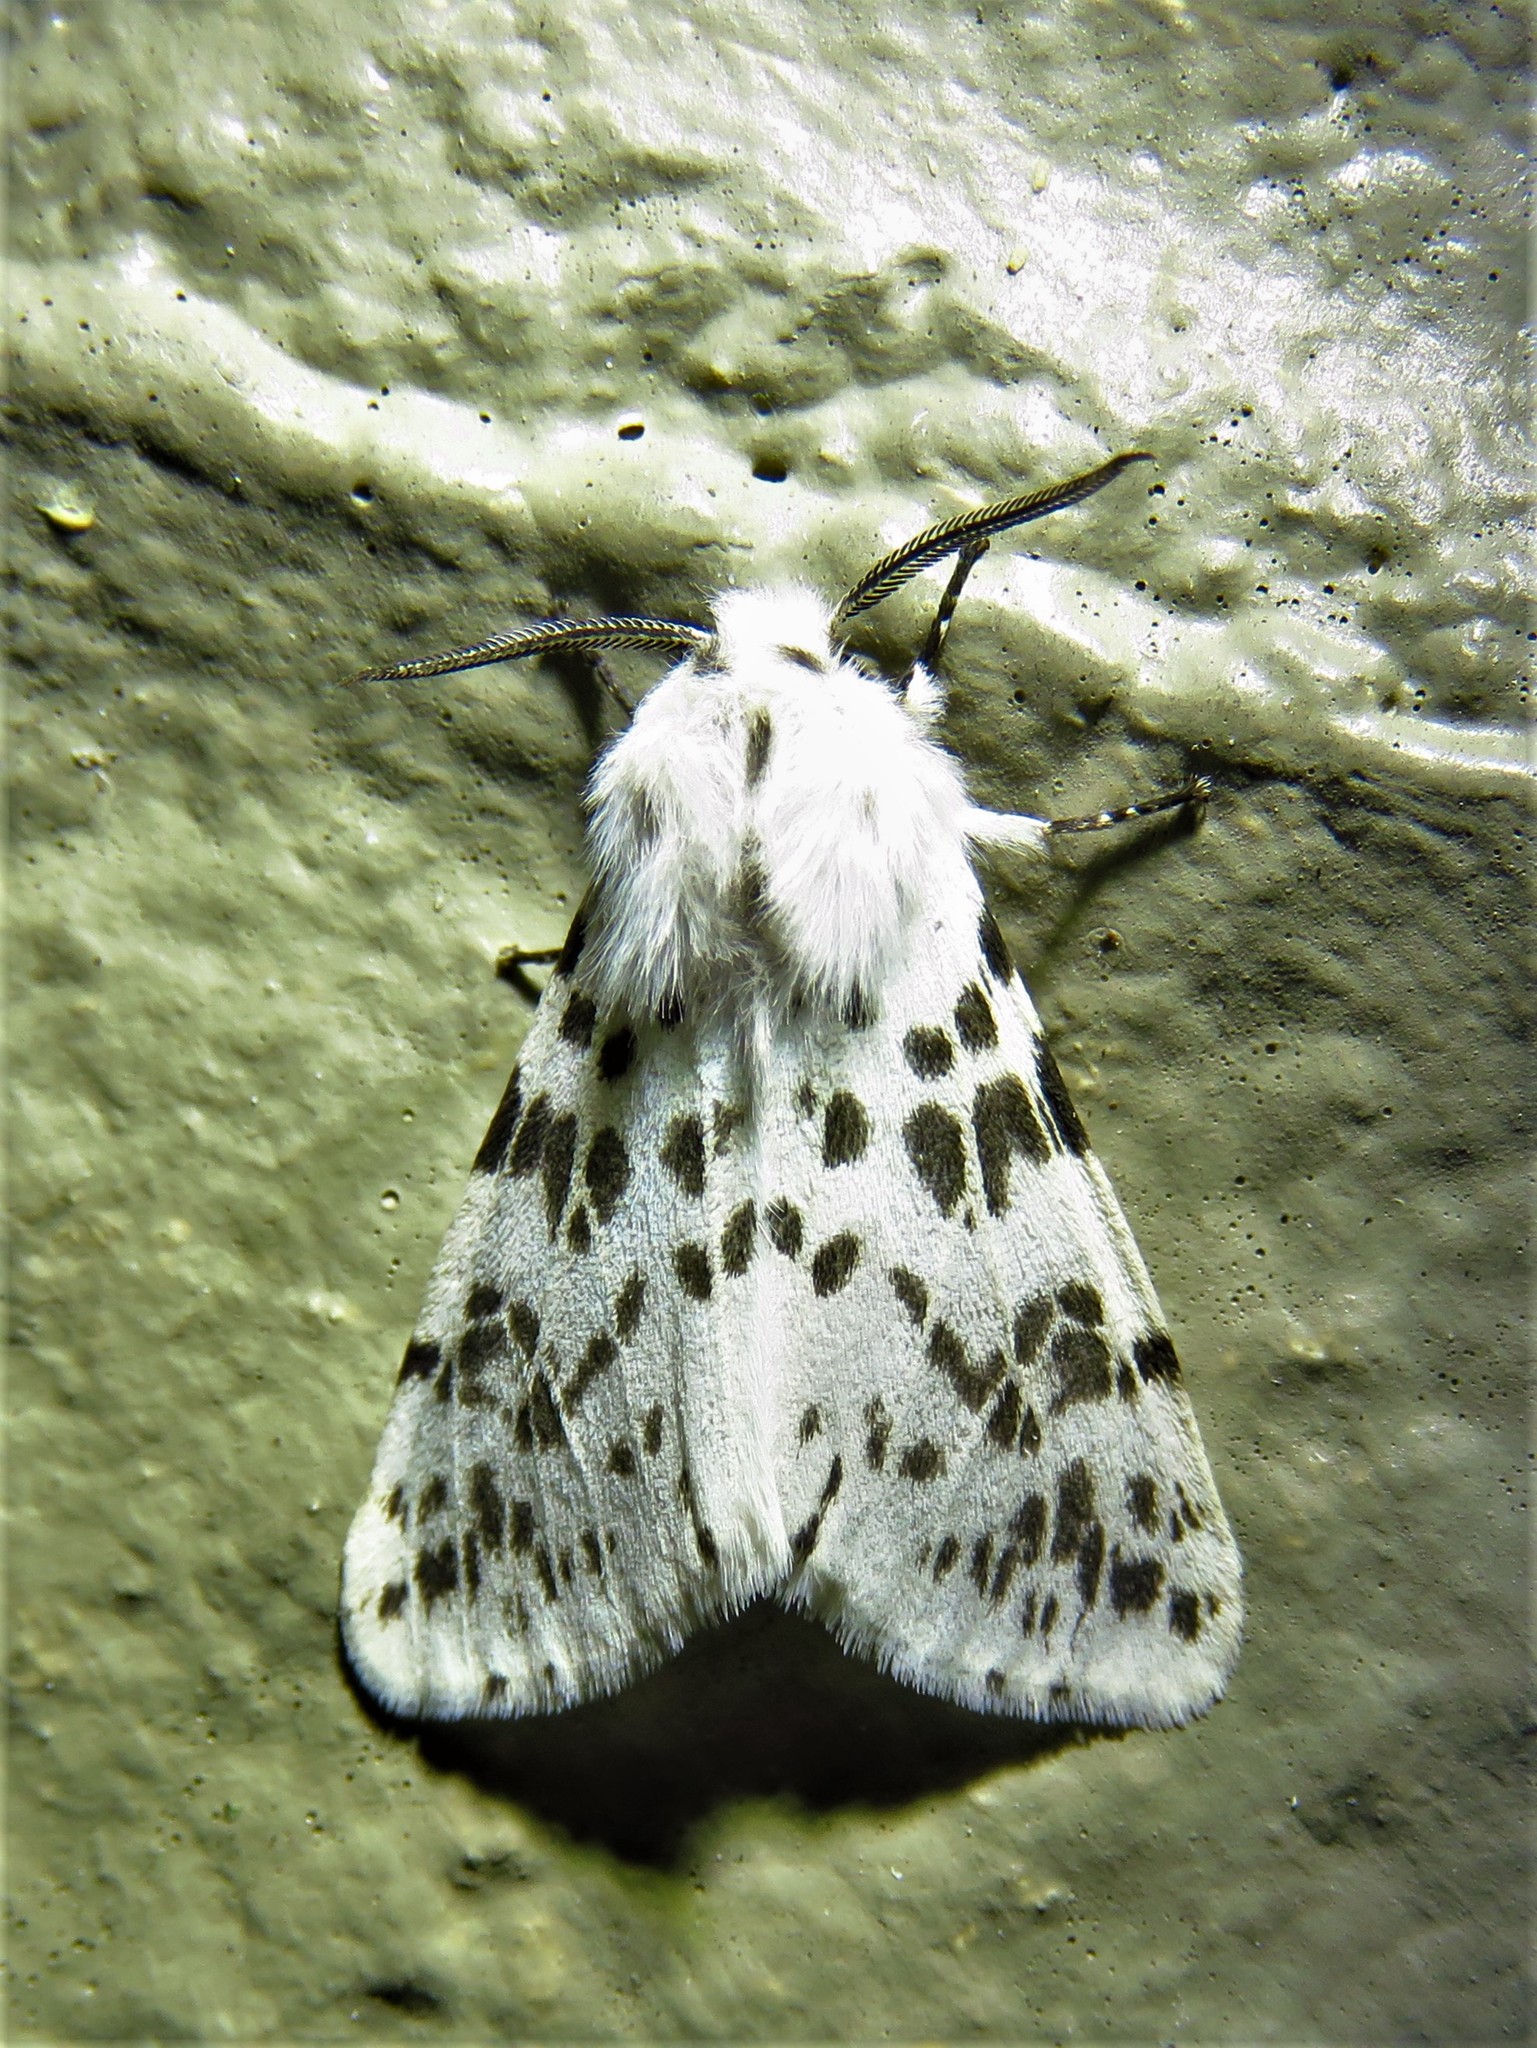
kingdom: Animalia
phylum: Arthropoda
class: Insecta
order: Lepidoptera
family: Erebidae
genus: Hyphantria
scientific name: Hyphantria cunea
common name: American white moth
